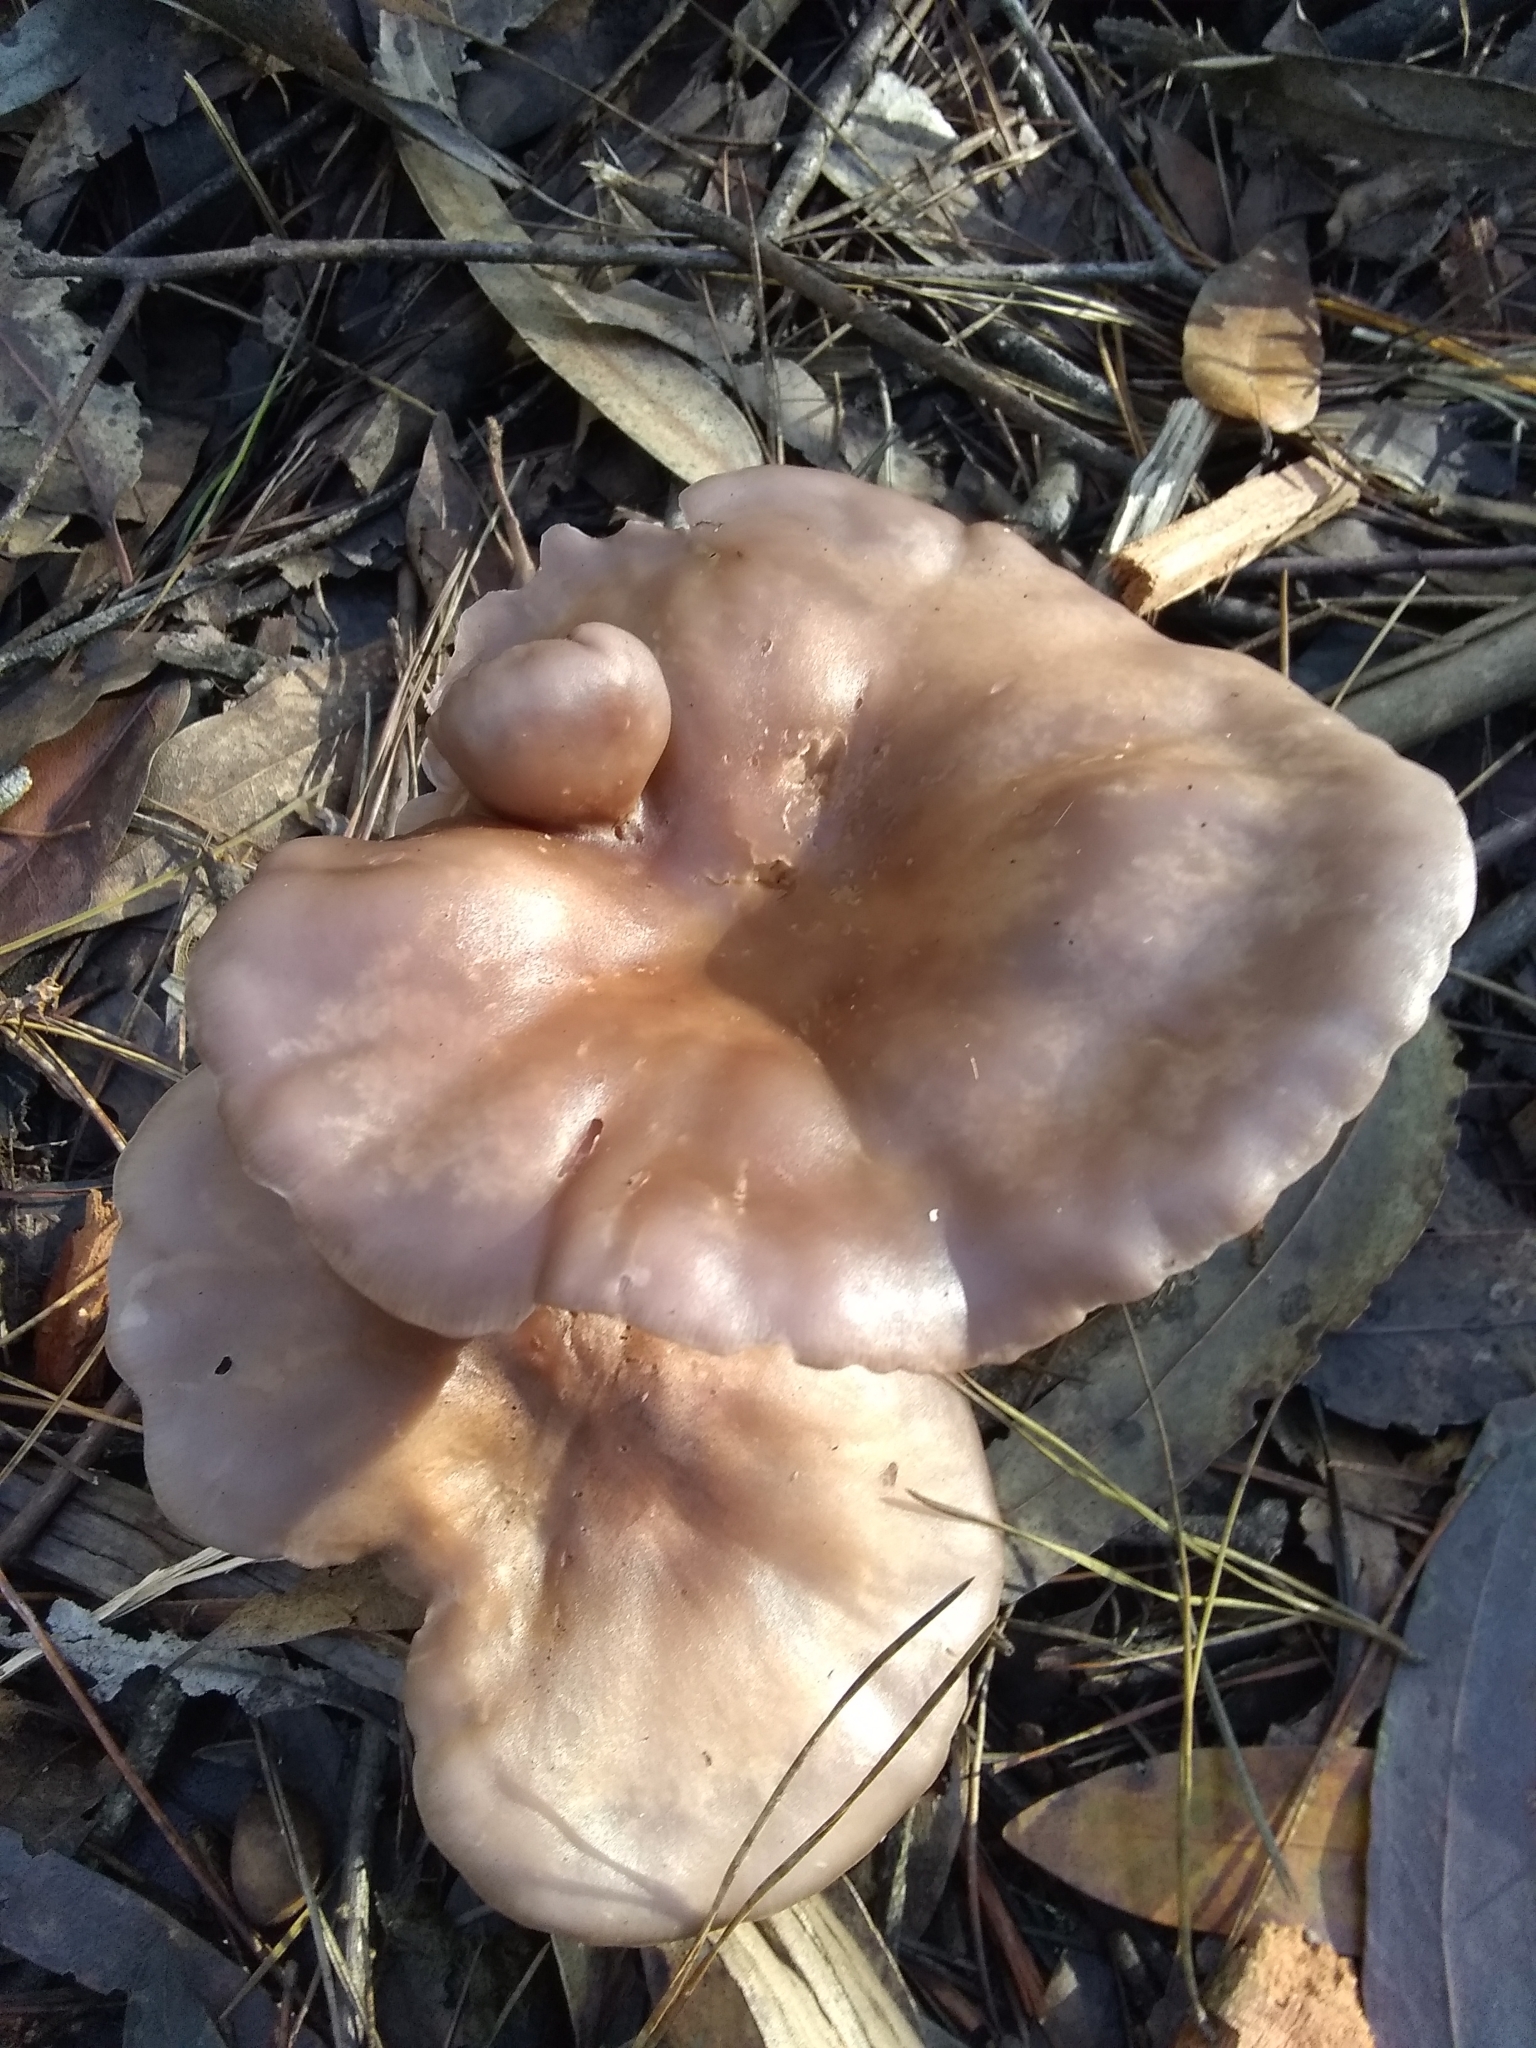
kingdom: Fungi
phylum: Basidiomycota
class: Agaricomycetes
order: Agaricales
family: Tricholomataceae
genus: Collybia
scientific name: Collybia
